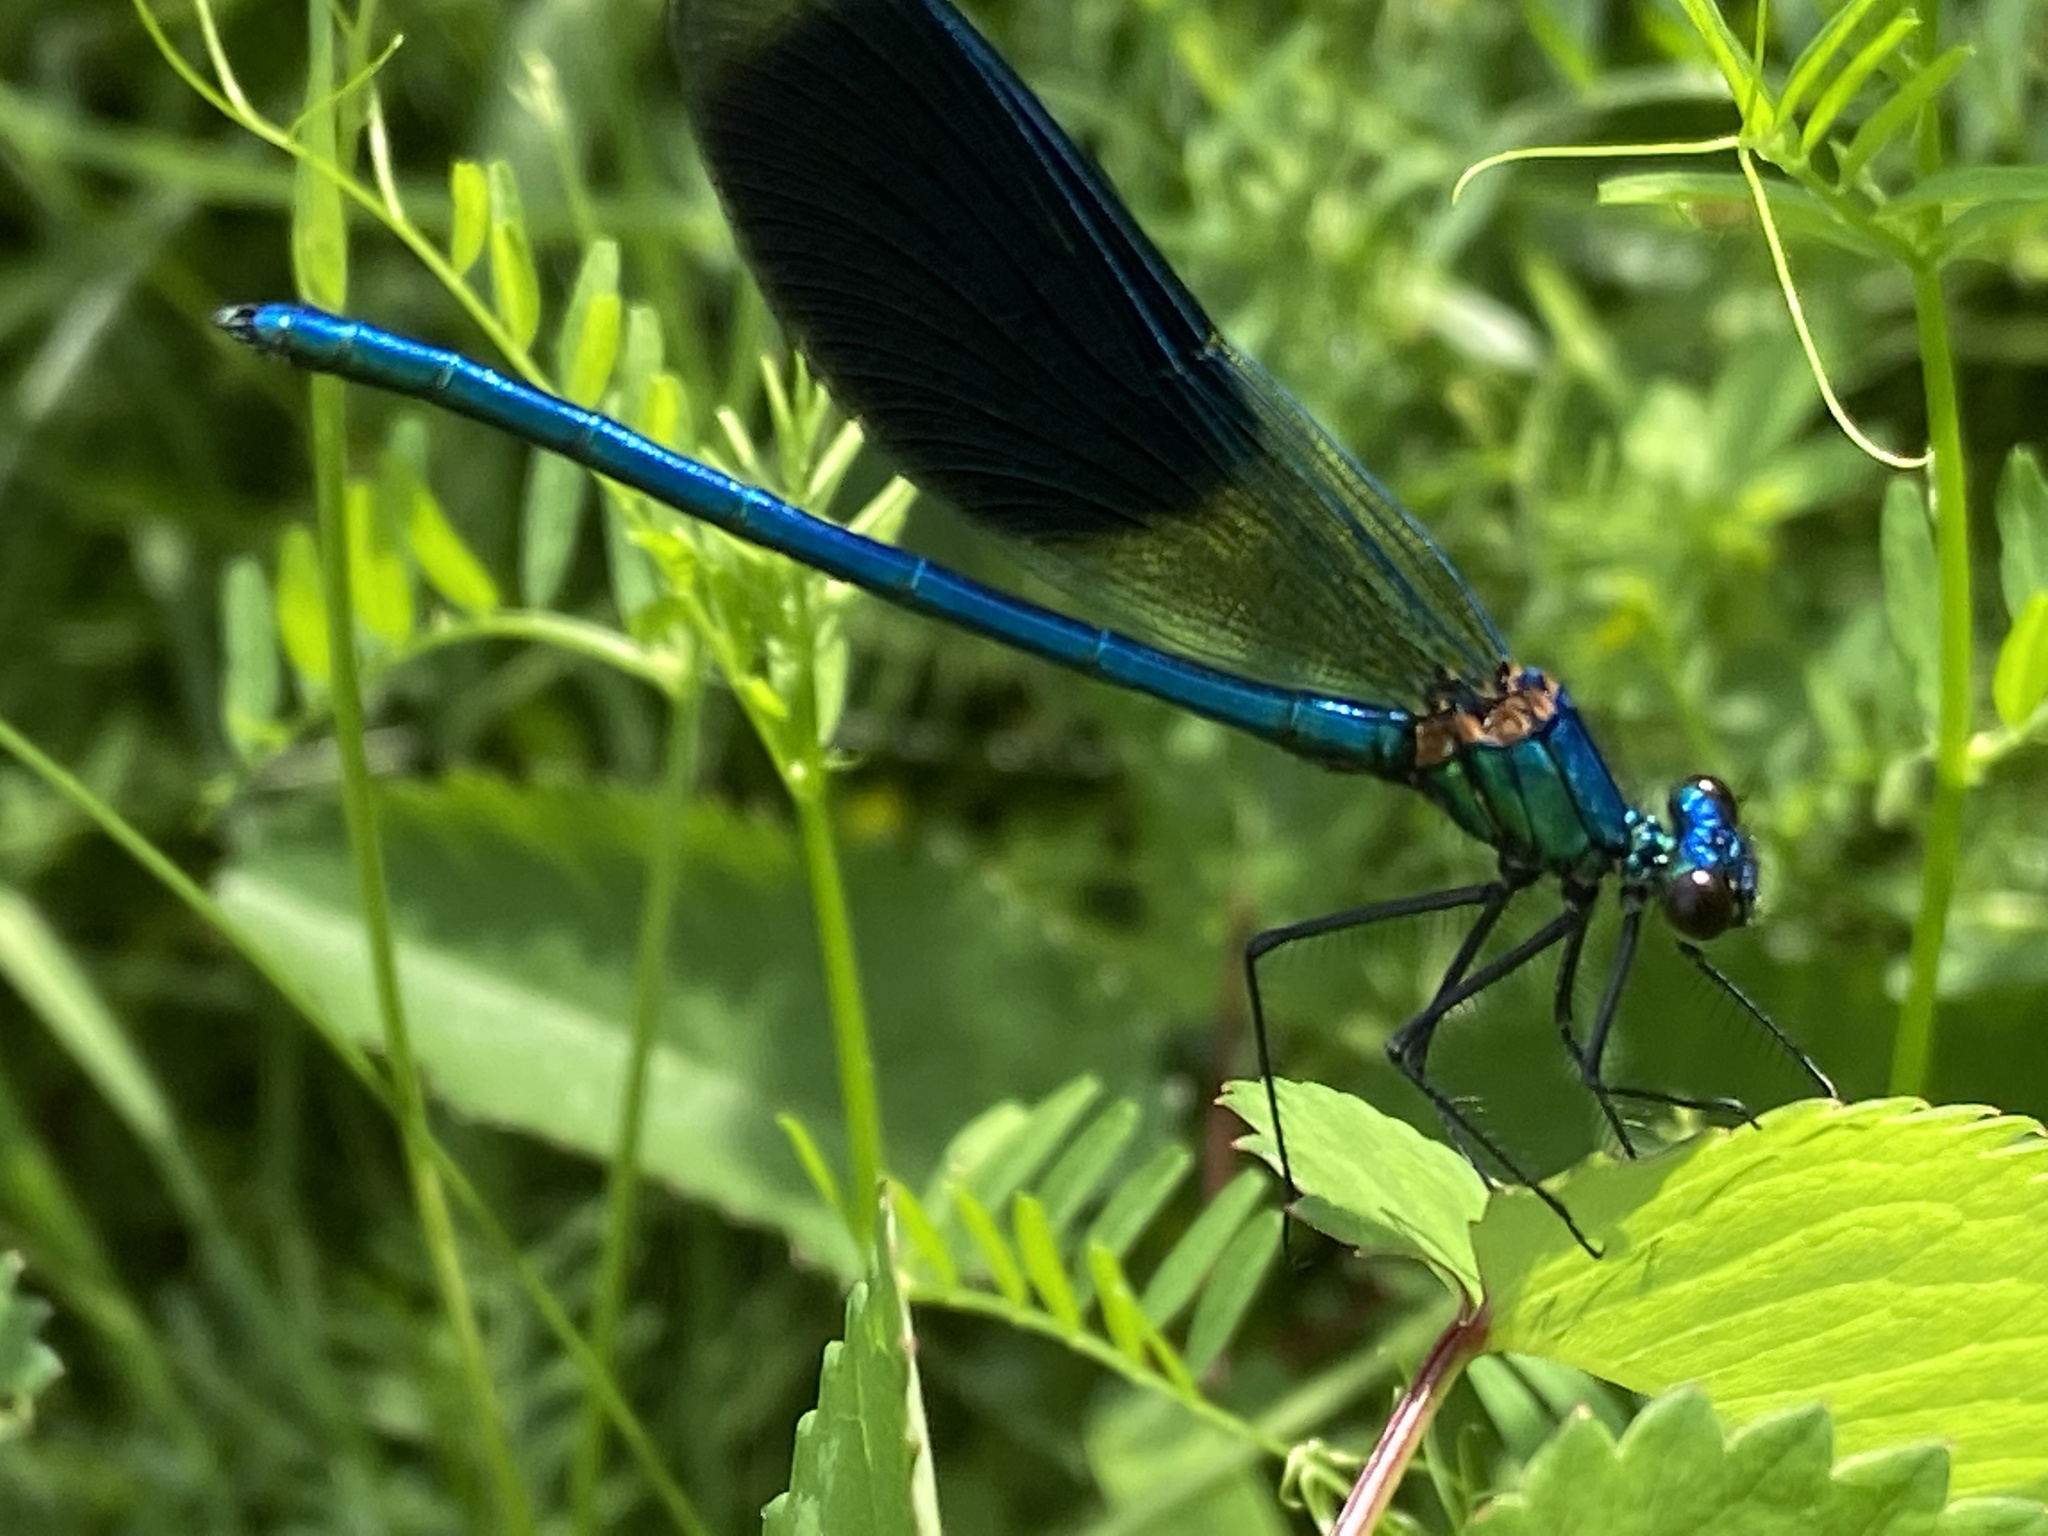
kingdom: Animalia
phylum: Arthropoda
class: Insecta
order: Odonata
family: Calopterygidae
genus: Calopteryx
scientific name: Calopteryx splendens
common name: Banded demoiselle
